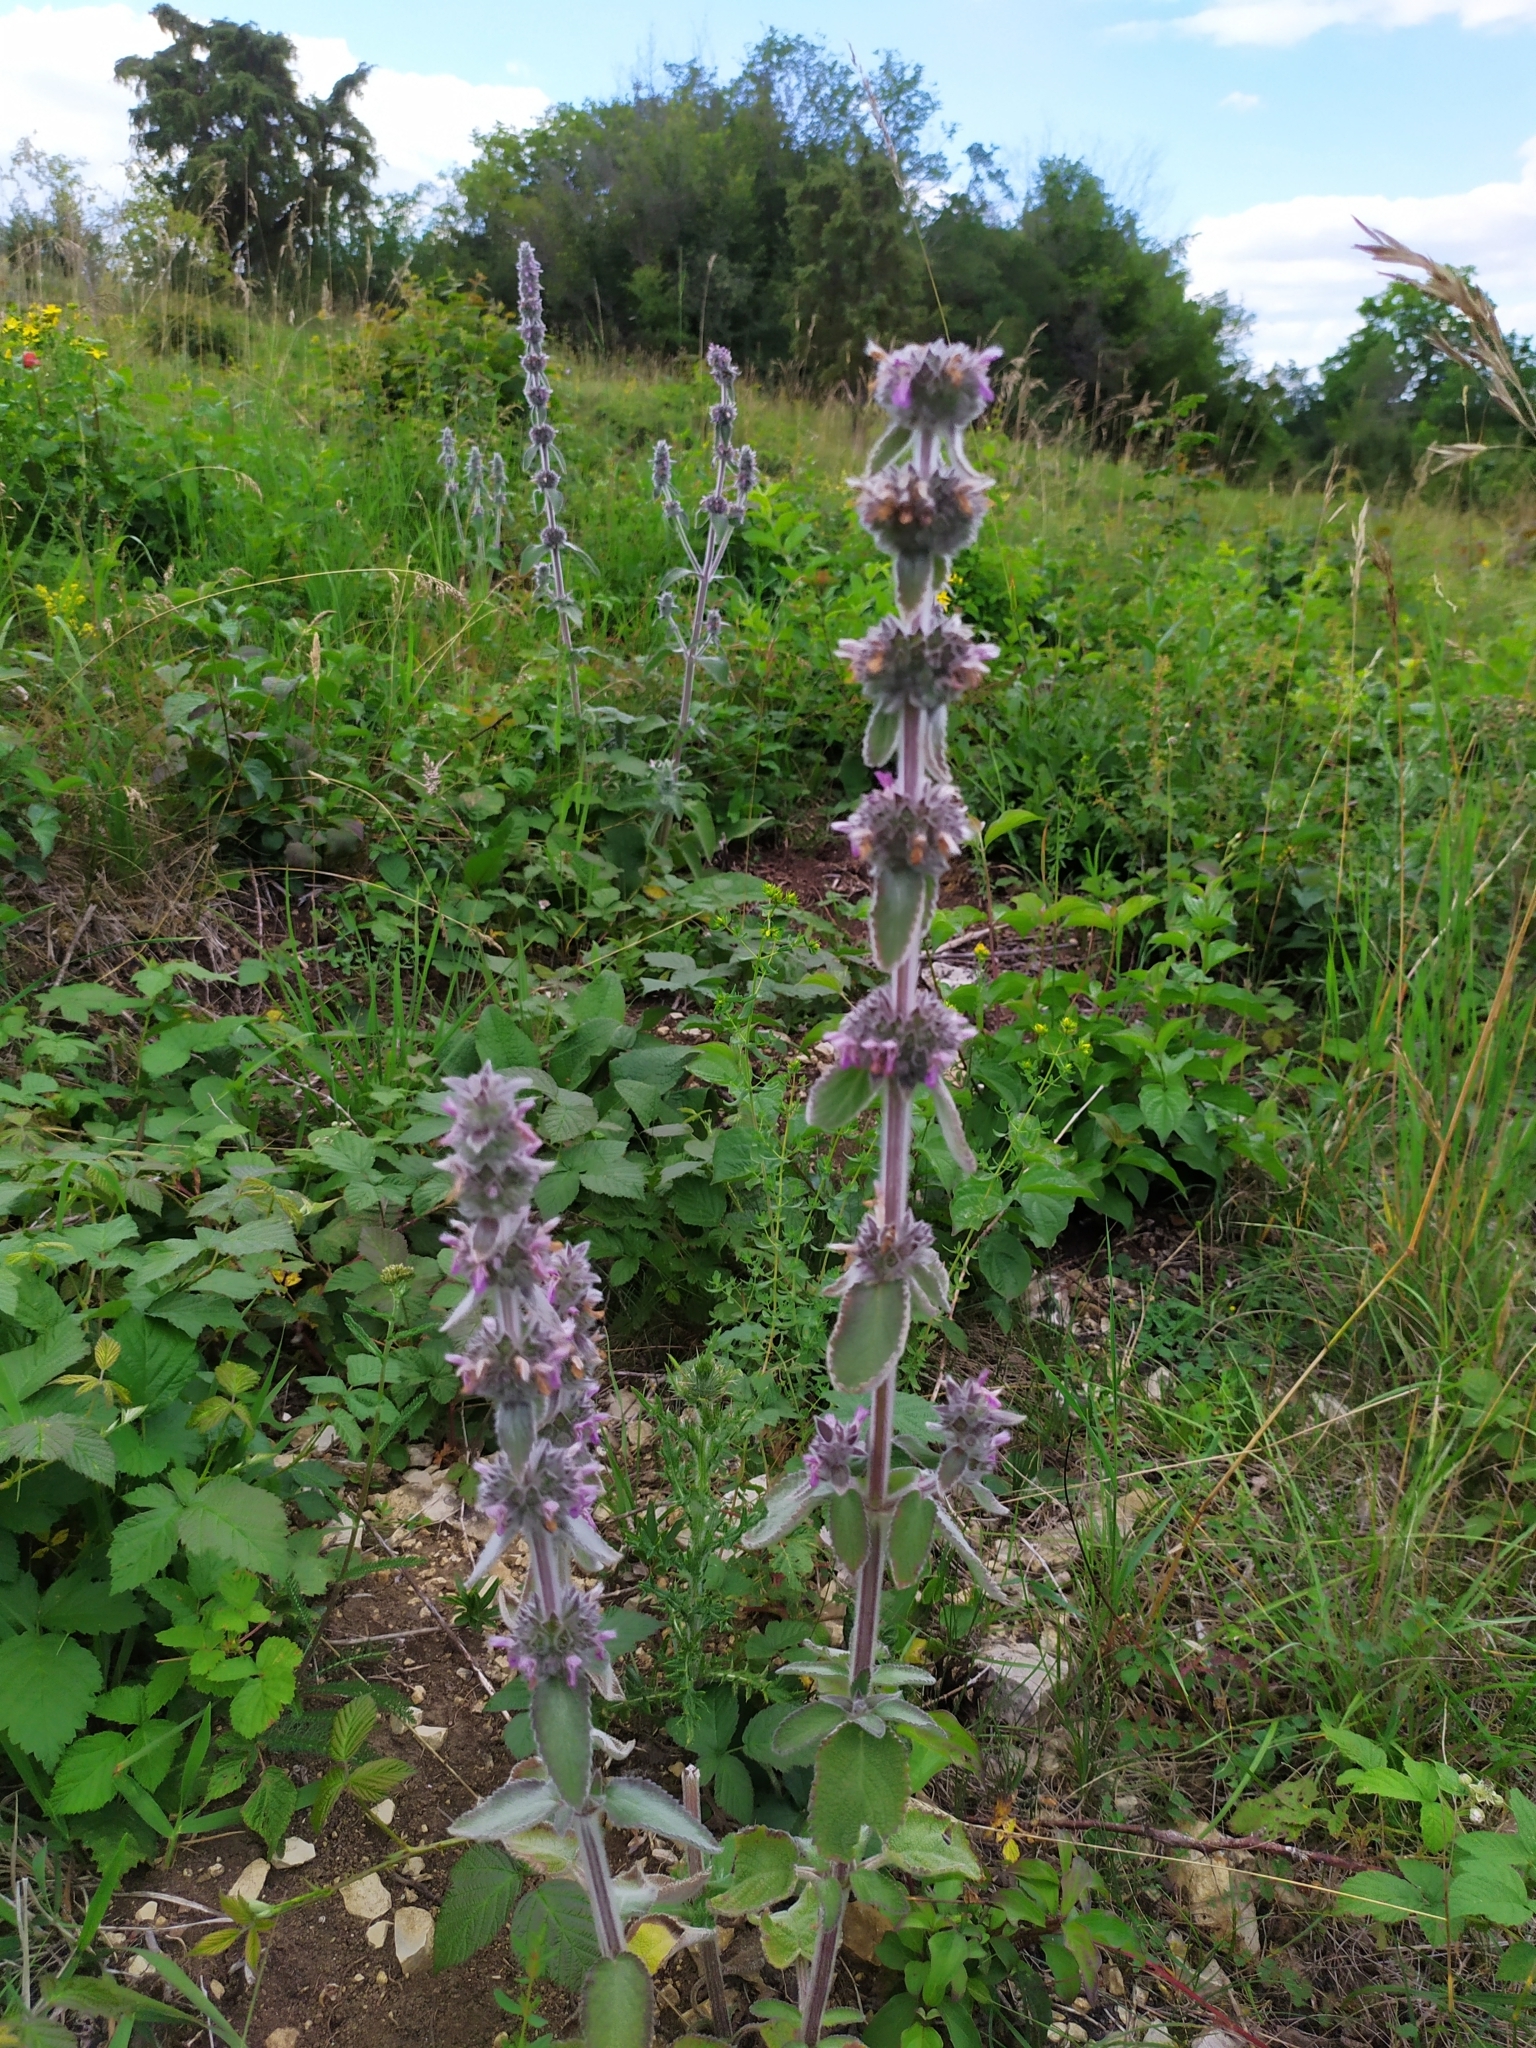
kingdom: Plantae
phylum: Tracheophyta
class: Magnoliopsida
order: Lamiales
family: Lamiaceae
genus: Stachys
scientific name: Stachys germanica
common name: Downy woundwort
